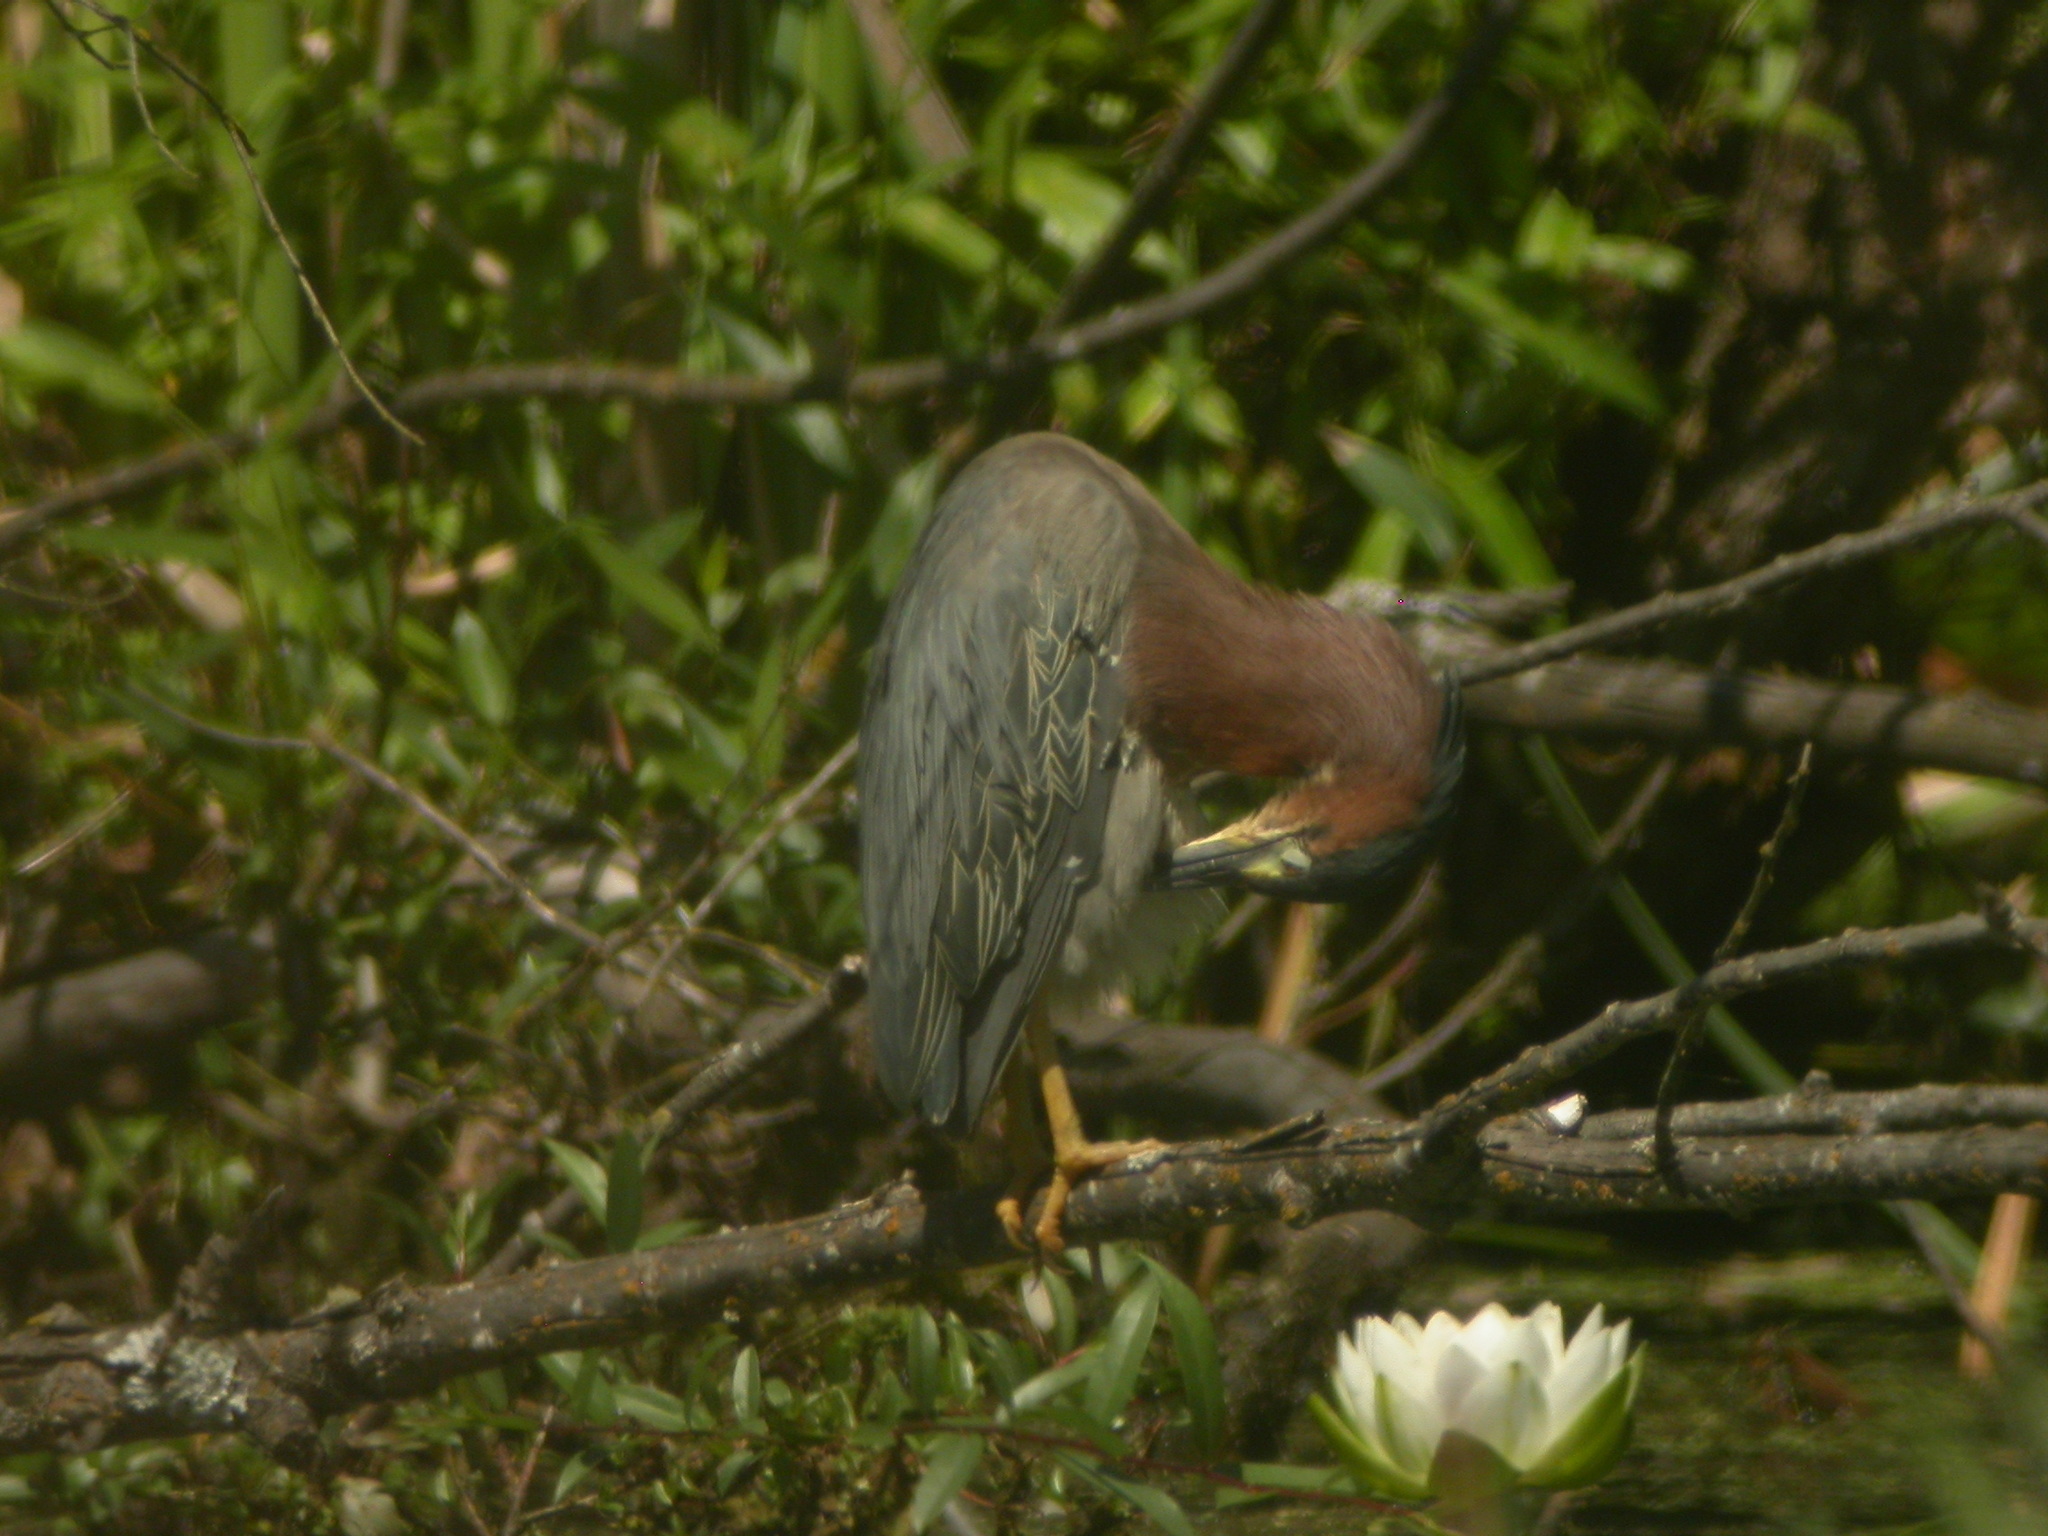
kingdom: Animalia
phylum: Chordata
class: Aves
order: Pelecaniformes
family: Ardeidae
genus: Butorides
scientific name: Butorides virescens
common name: Green heron
